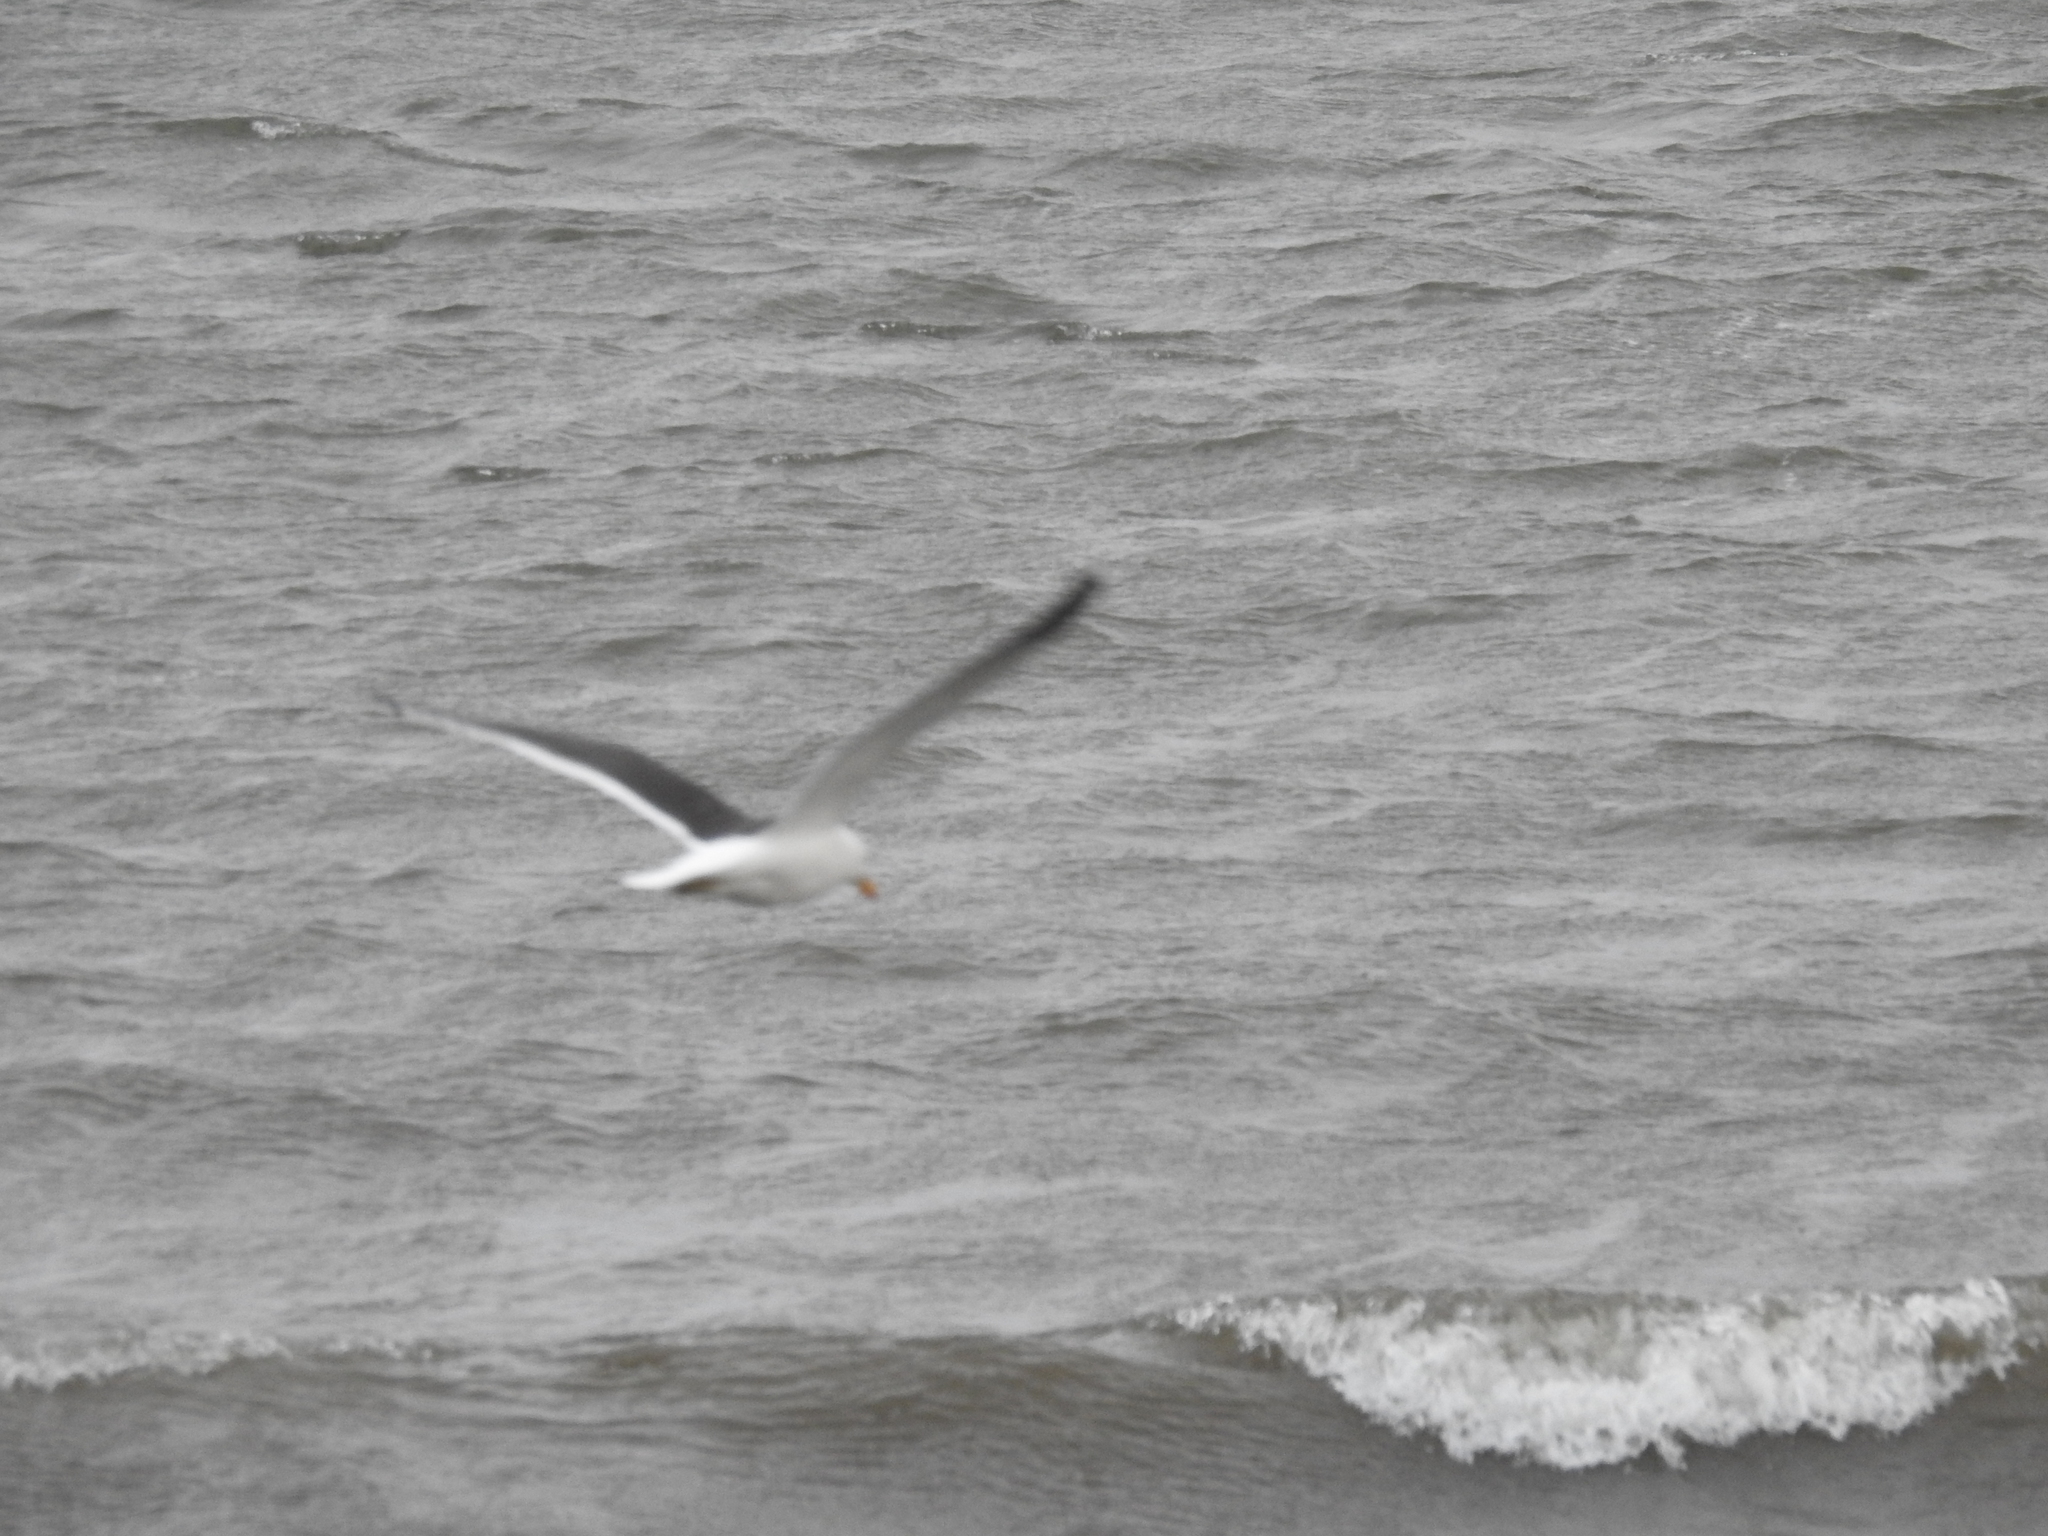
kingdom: Animalia
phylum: Chordata
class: Aves
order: Charadriiformes
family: Laridae
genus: Larus
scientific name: Larus dominicanus
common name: Kelp gull
